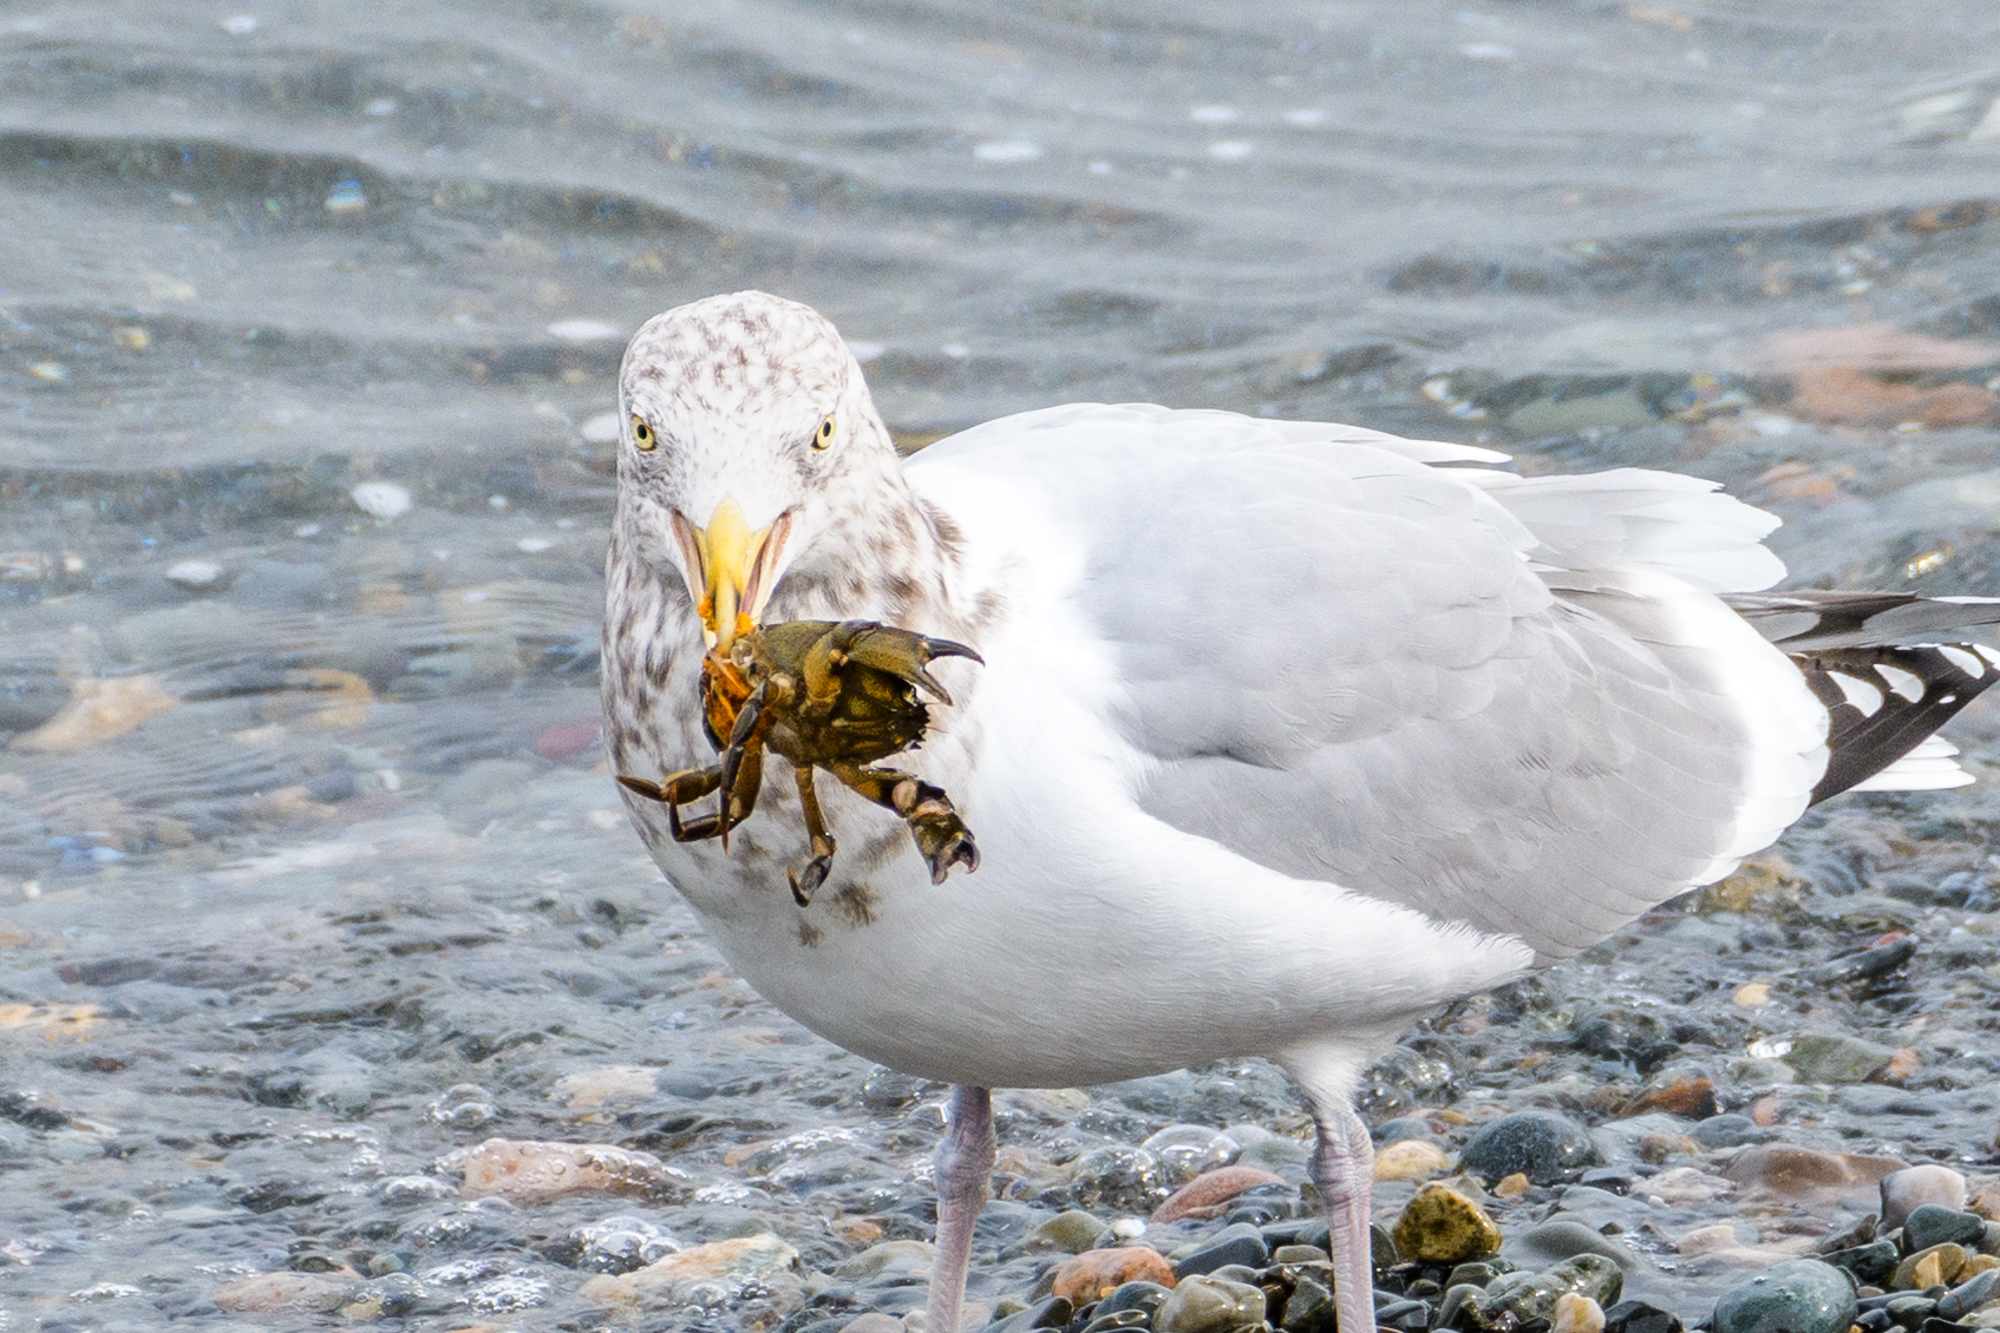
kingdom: Animalia
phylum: Chordata
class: Aves
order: Charadriiformes
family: Laridae
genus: Larus
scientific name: Larus argentatus
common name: Herring gull
